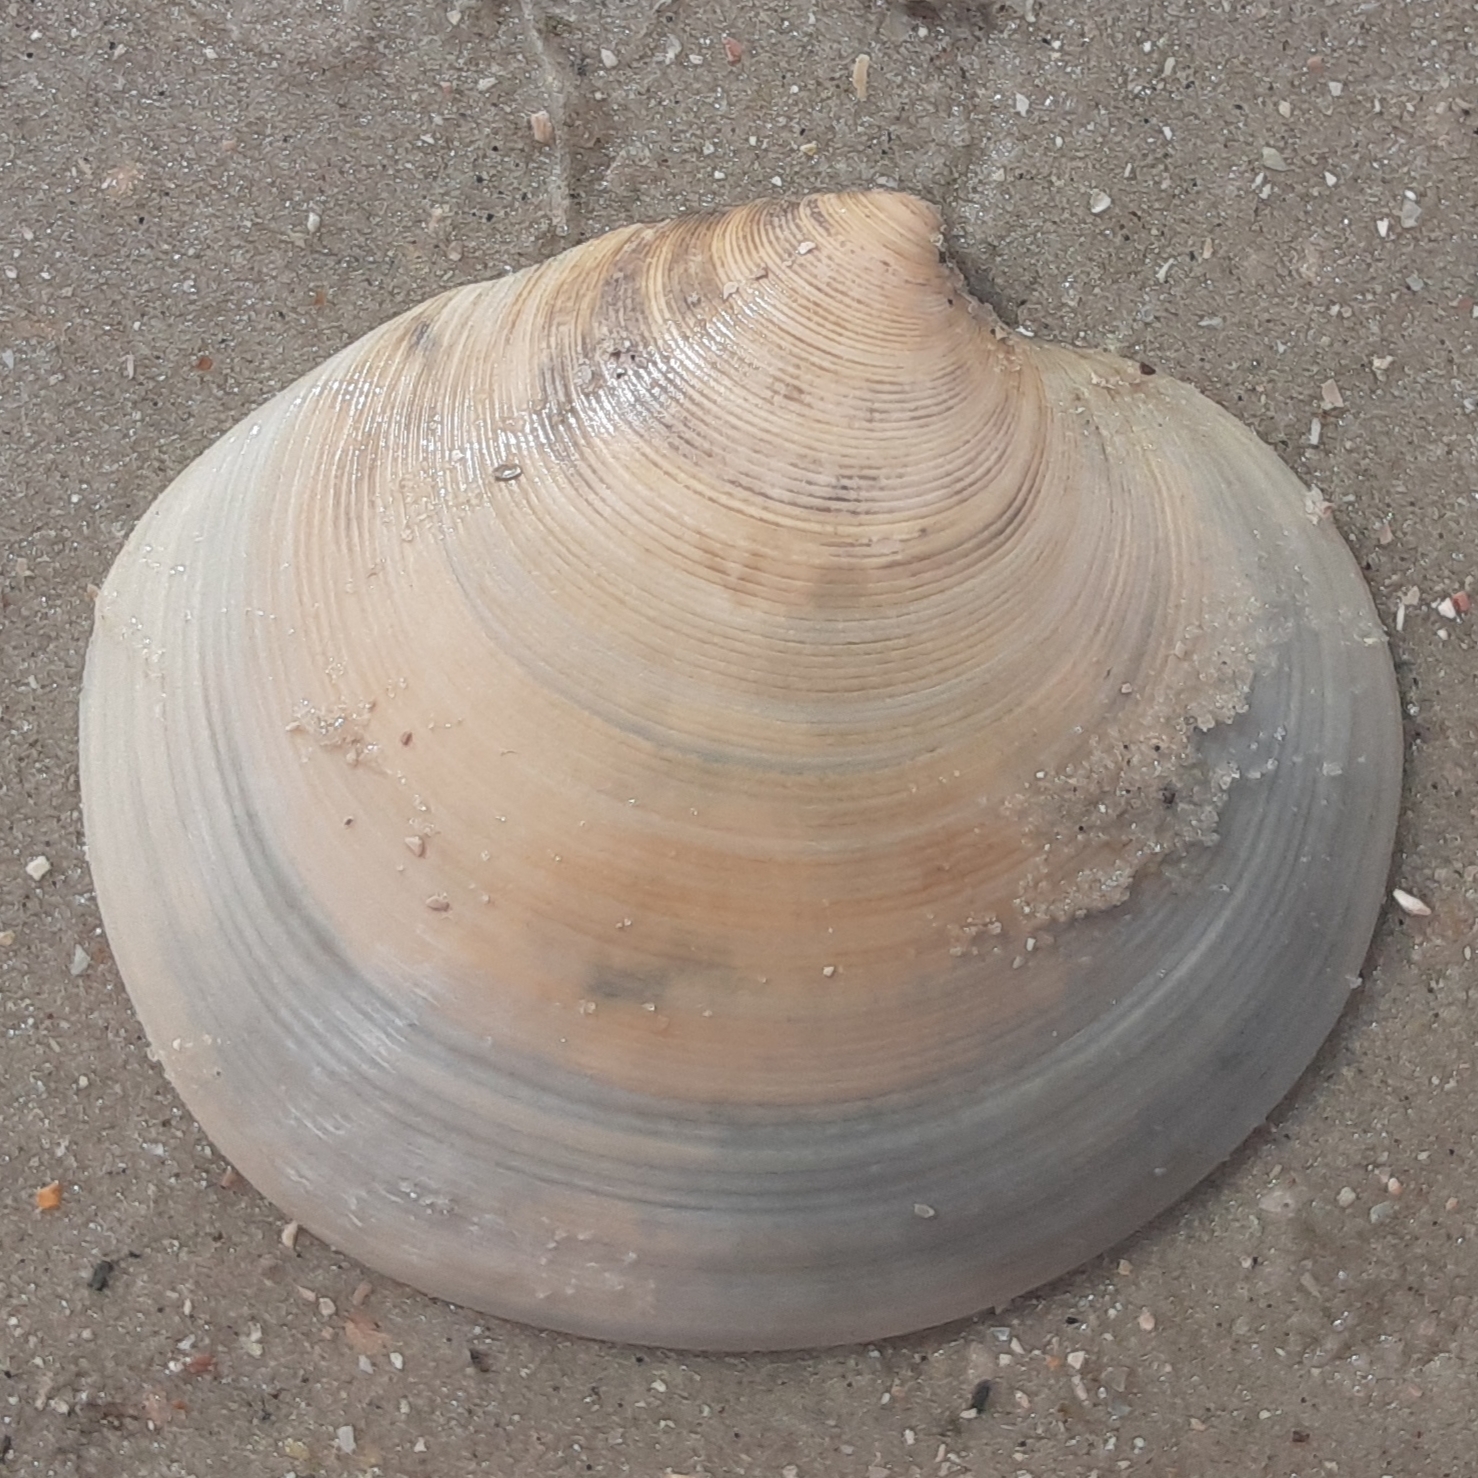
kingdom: Animalia
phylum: Mollusca
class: Bivalvia
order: Venerida
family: Veneridae
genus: Dosinia
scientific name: Dosinia discus
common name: Disk dosinia
